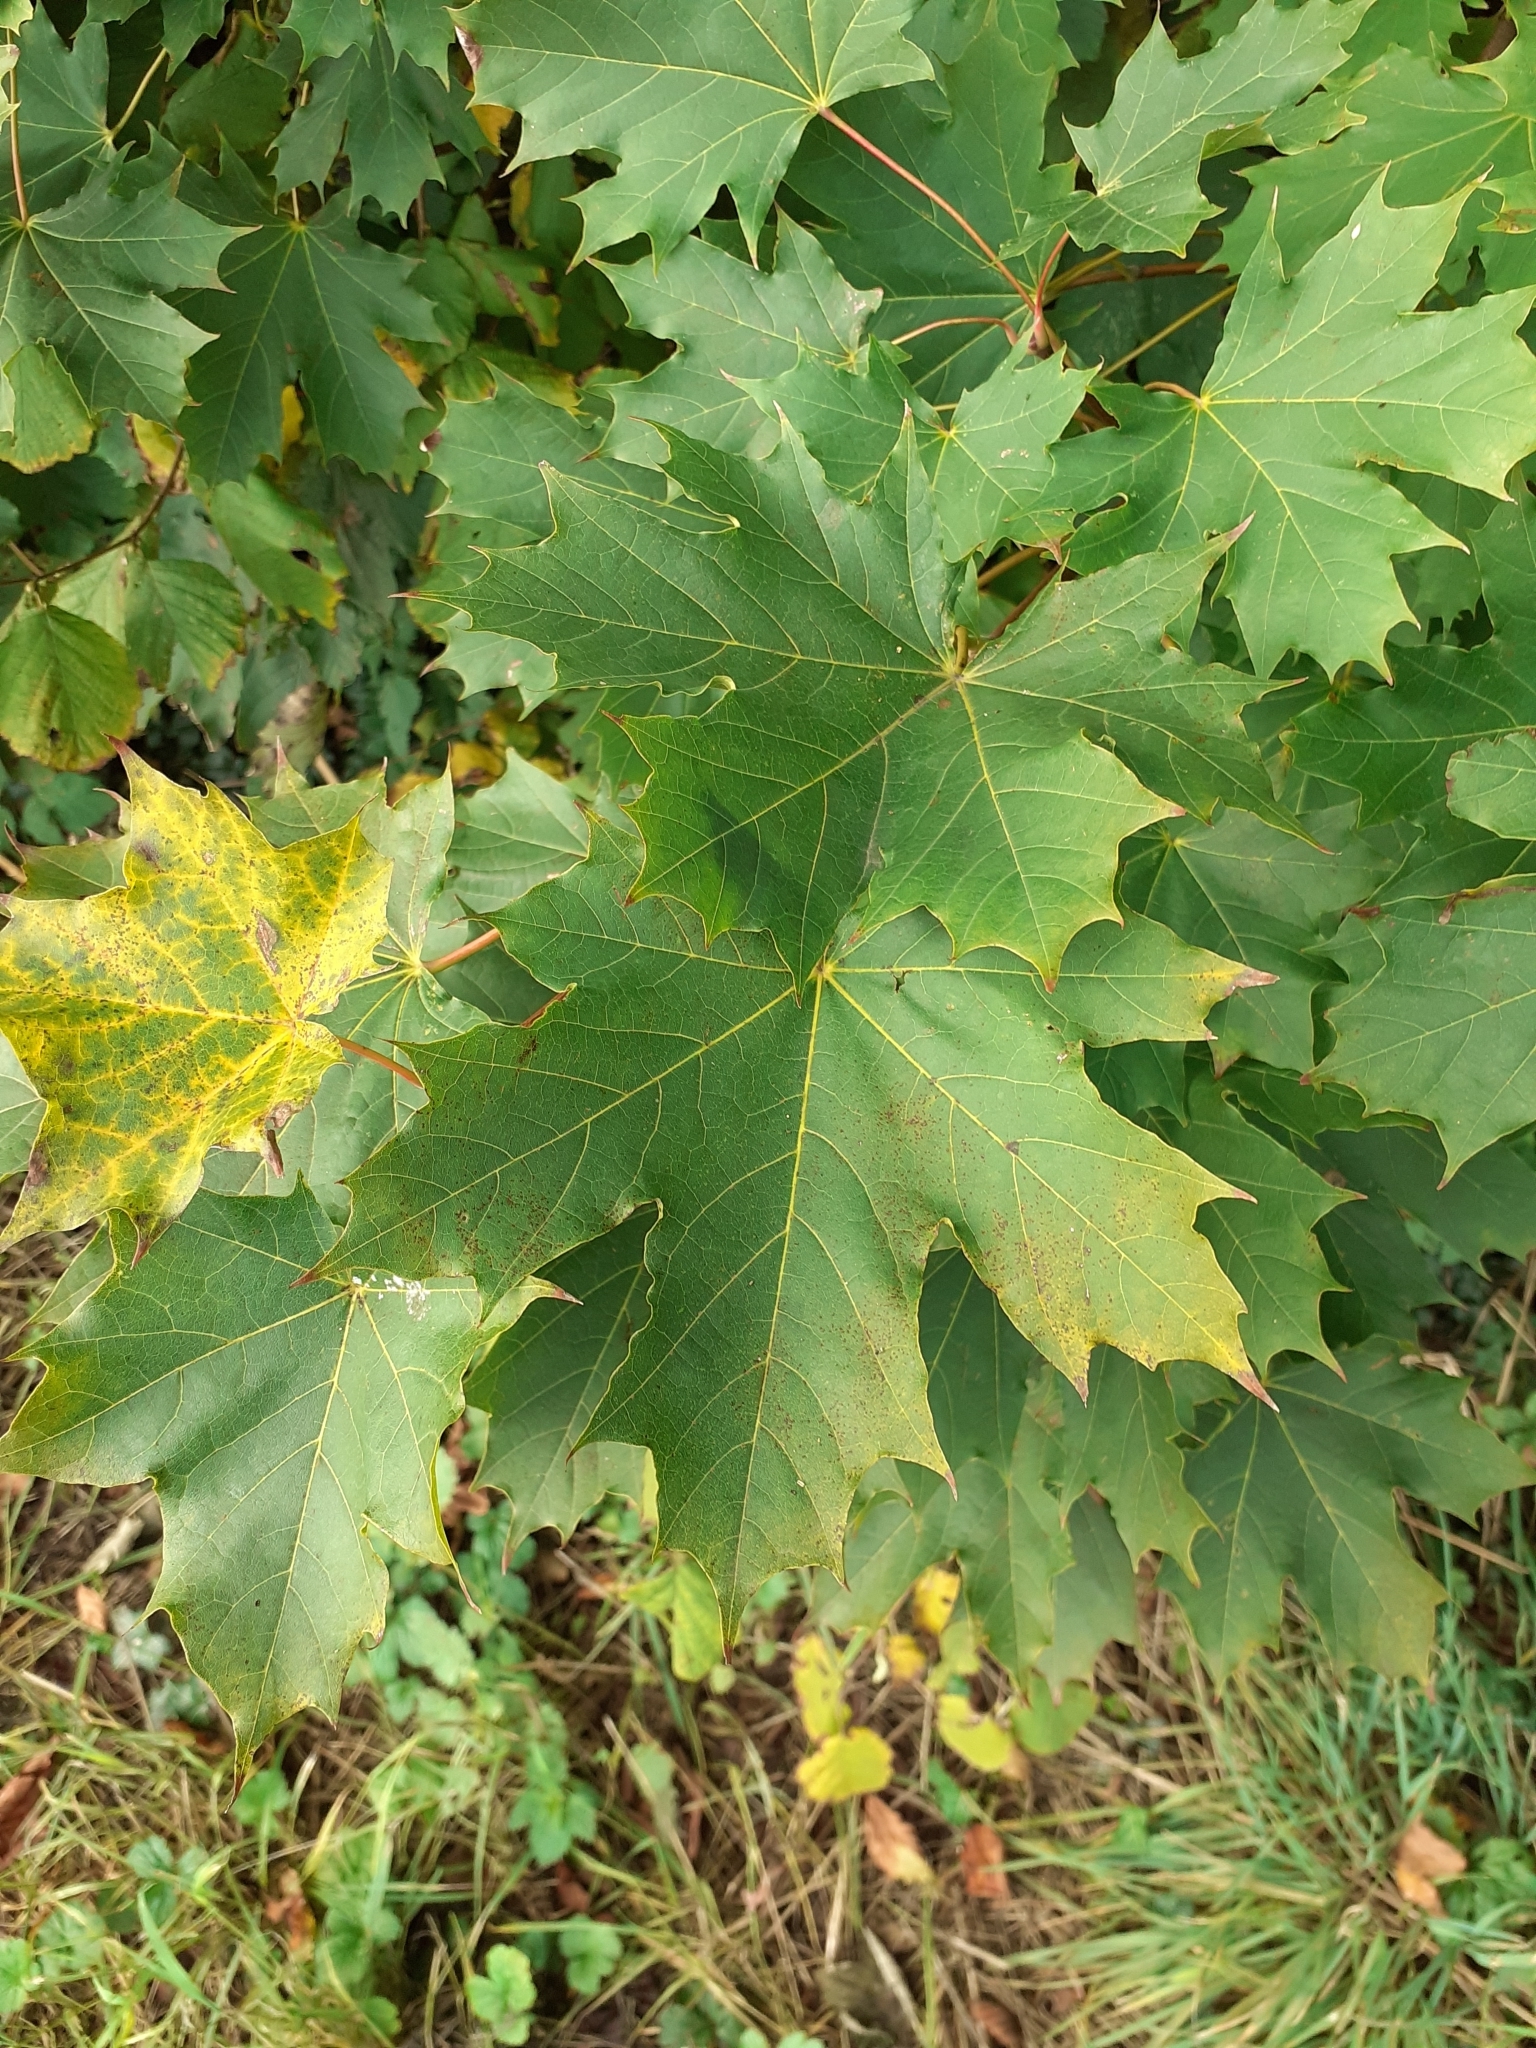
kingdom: Plantae
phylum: Tracheophyta
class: Magnoliopsida
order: Sapindales
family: Sapindaceae
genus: Acer
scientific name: Acer platanoides
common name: Norway maple
